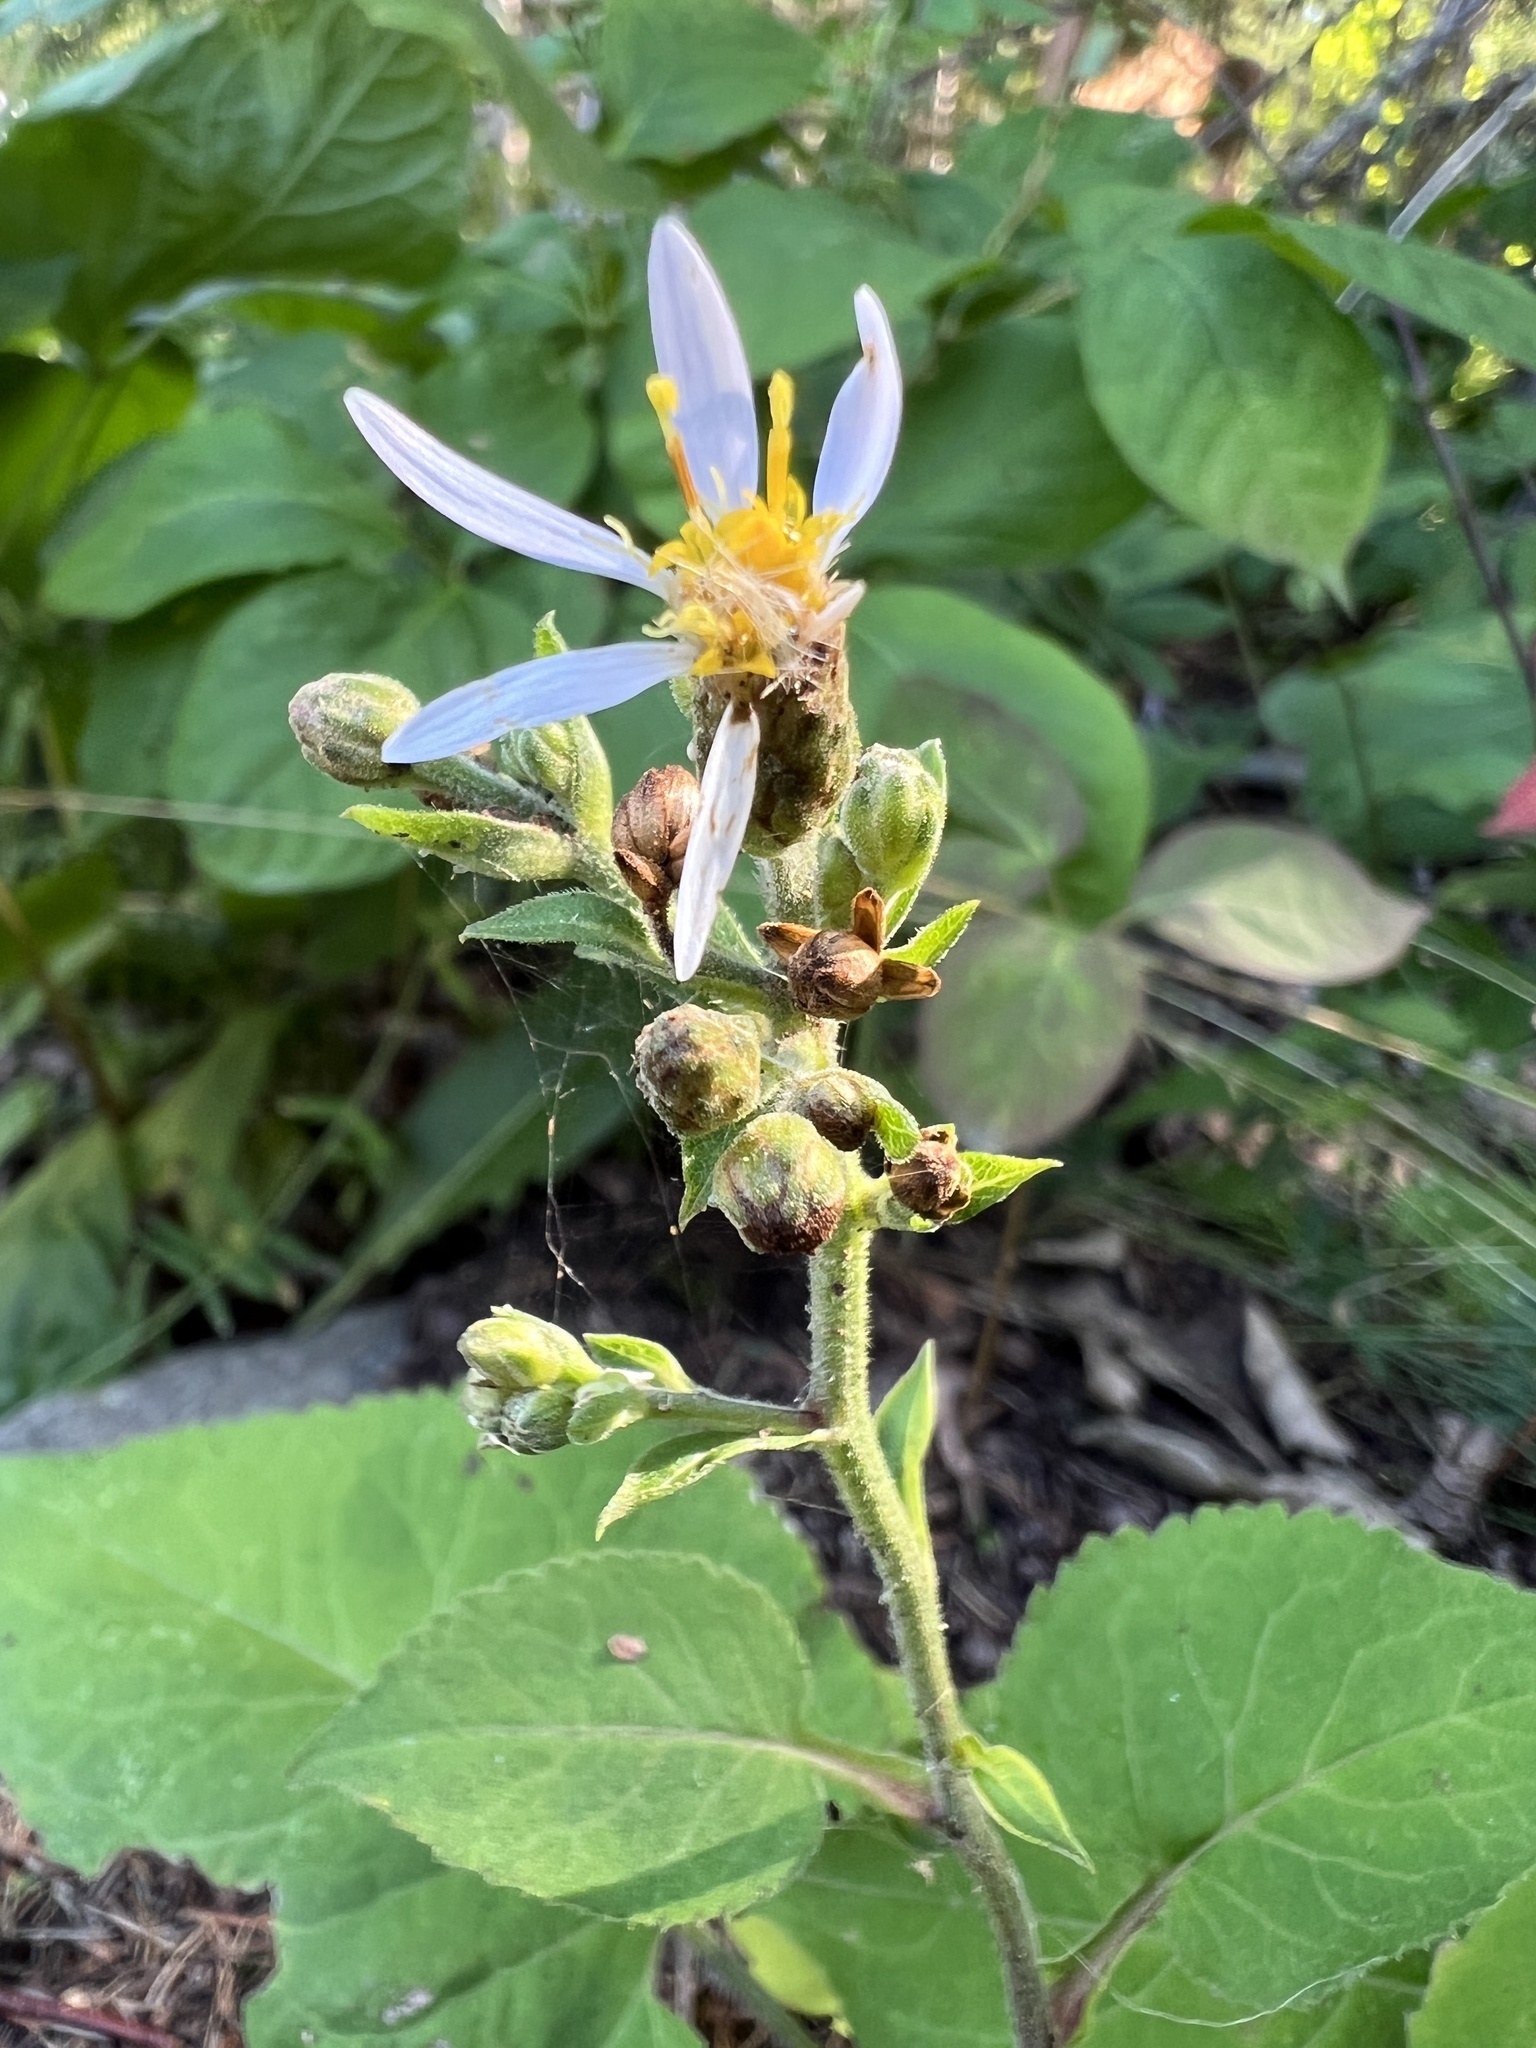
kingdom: Plantae
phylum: Tracheophyta
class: Magnoliopsida
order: Asterales
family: Asteraceae
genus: Eurybia
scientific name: Eurybia macrophylla
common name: Big-leaved aster
